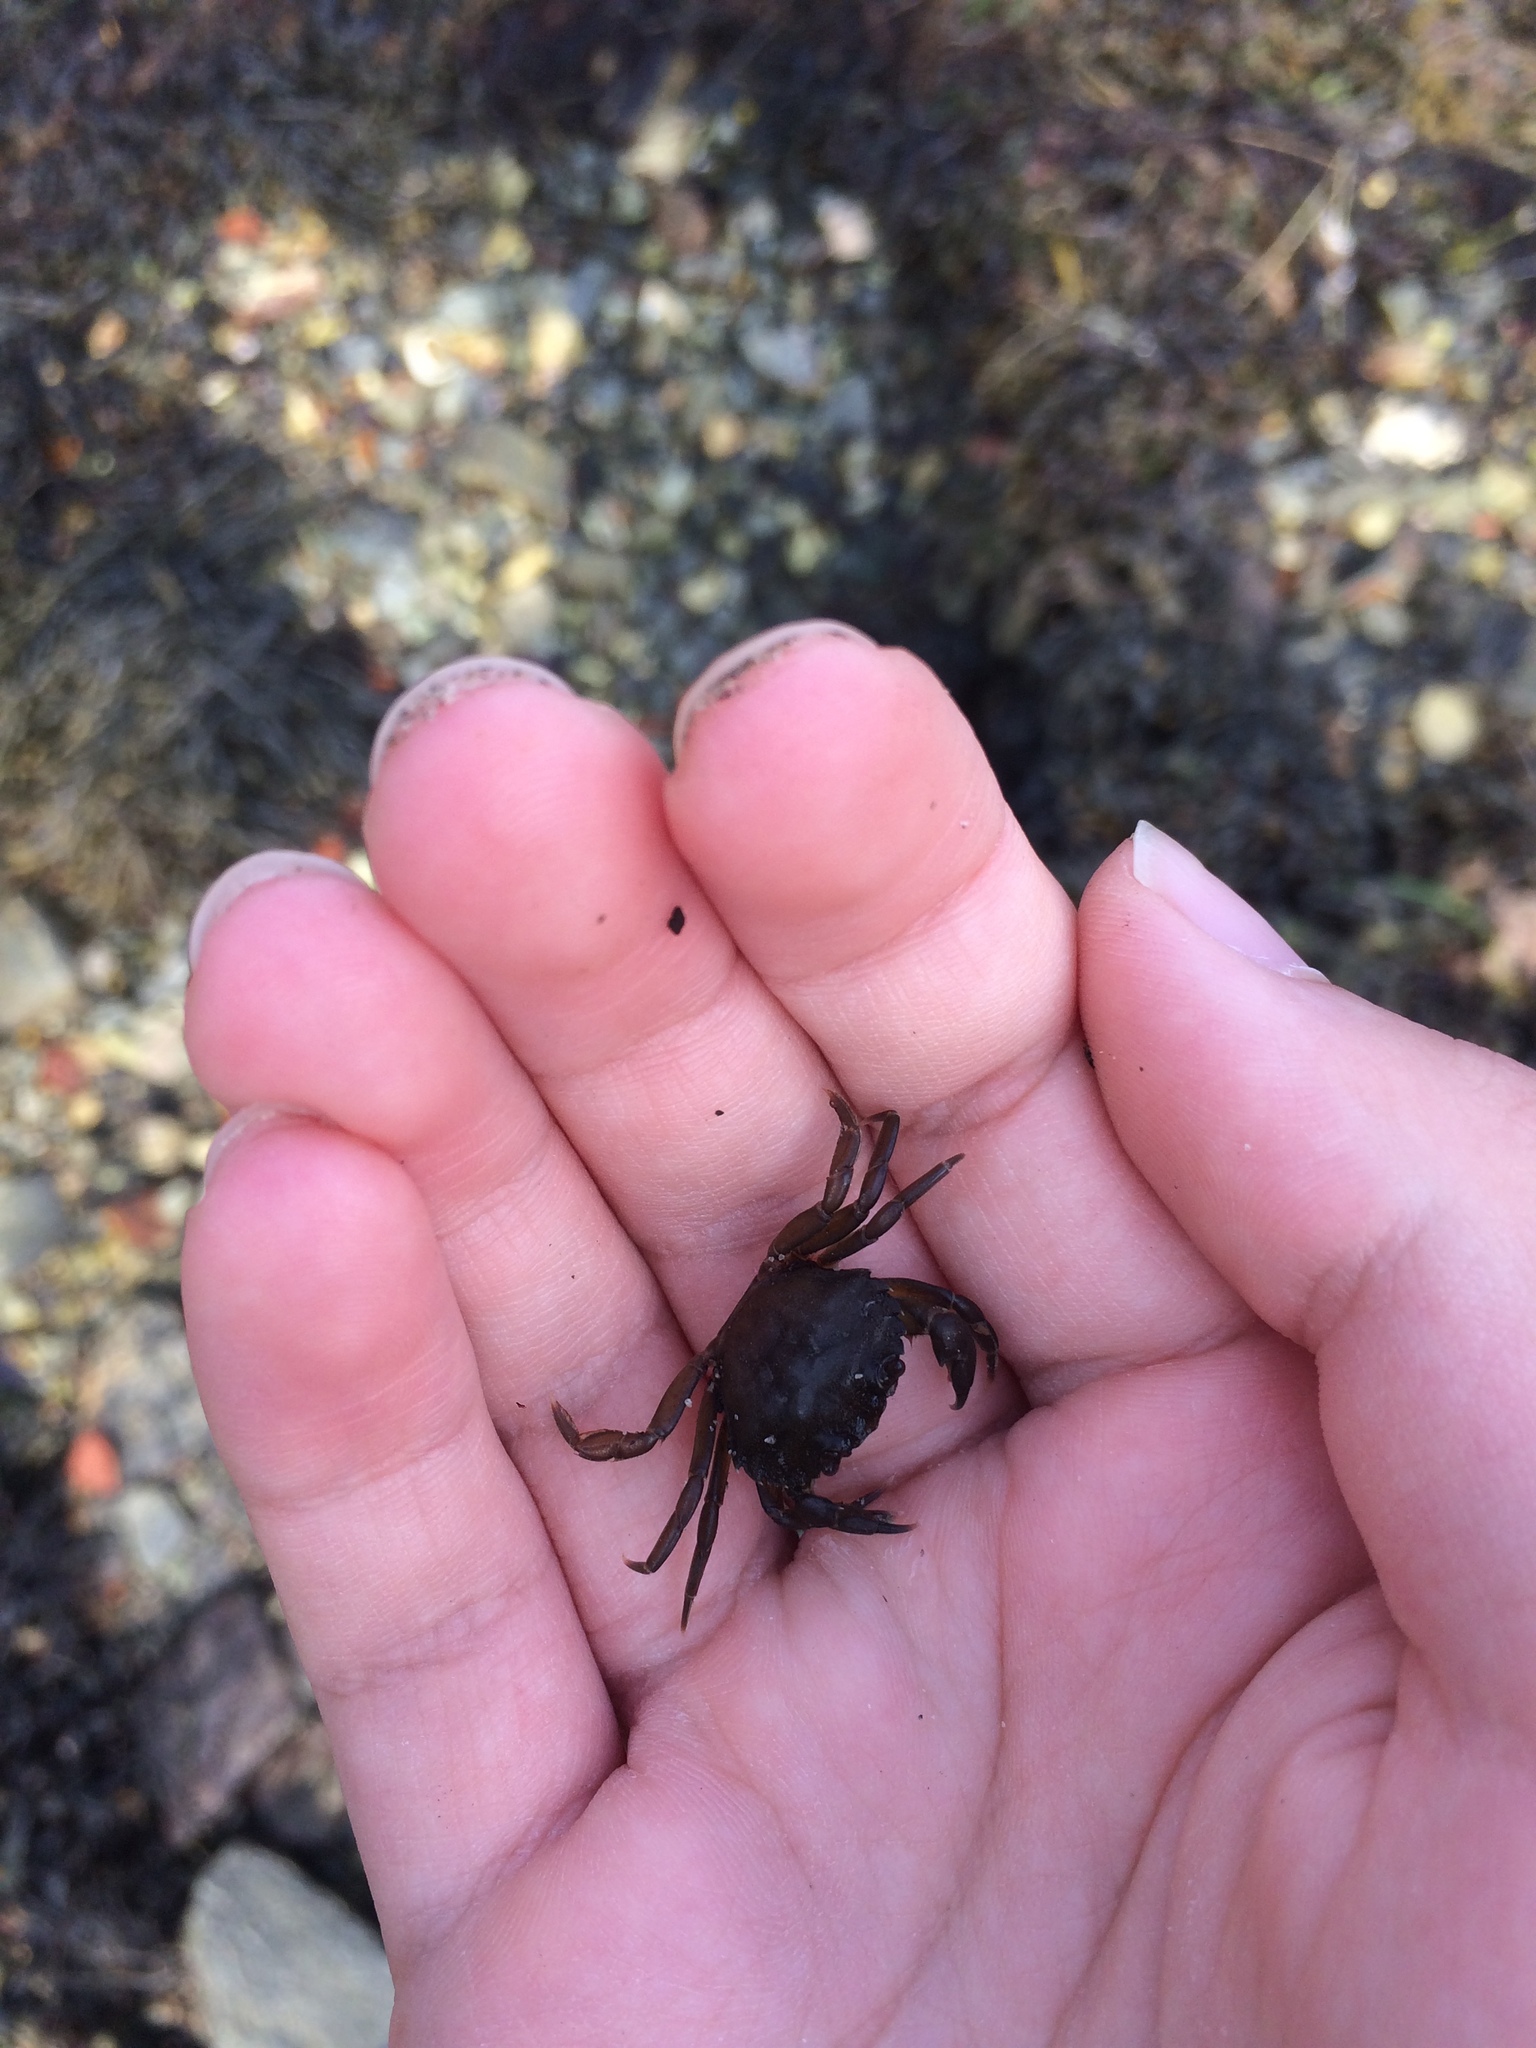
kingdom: Animalia
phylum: Arthropoda
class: Malacostraca
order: Decapoda
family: Carcinidae
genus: Carcinus
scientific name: Carcinus maenas
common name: European green crab
